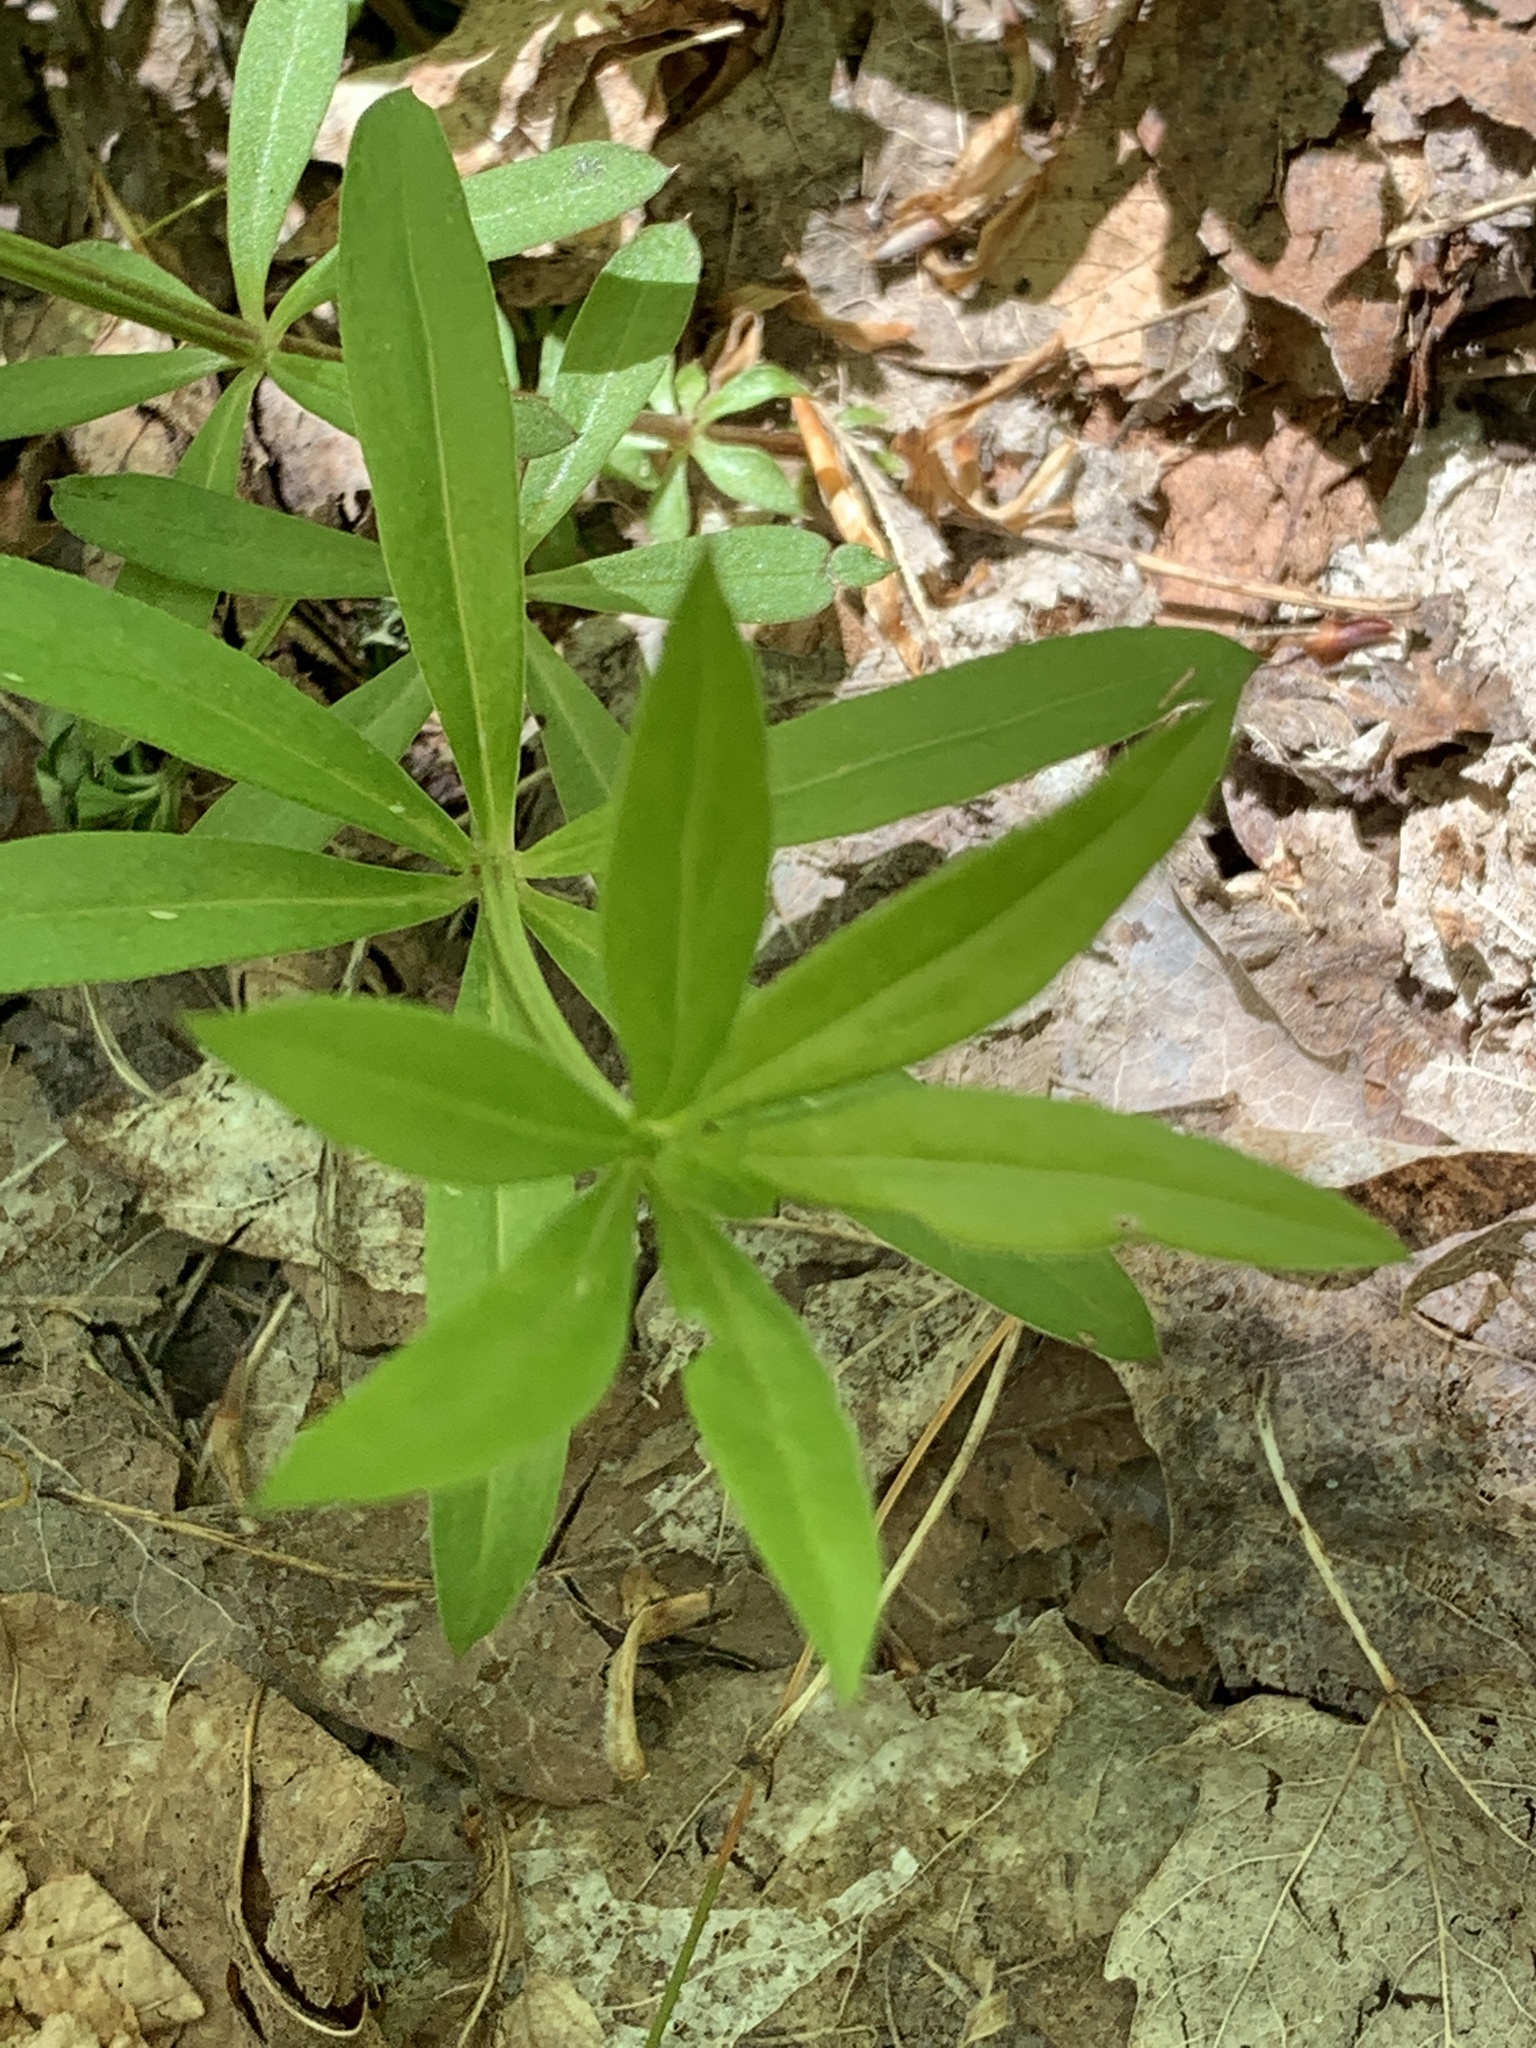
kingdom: Plantae
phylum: Tracheophyta
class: Magnoliopsida
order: Gentianales
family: Rubiaceae
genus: Galium
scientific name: Galium triflorum
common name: Fragrant bedstraw
